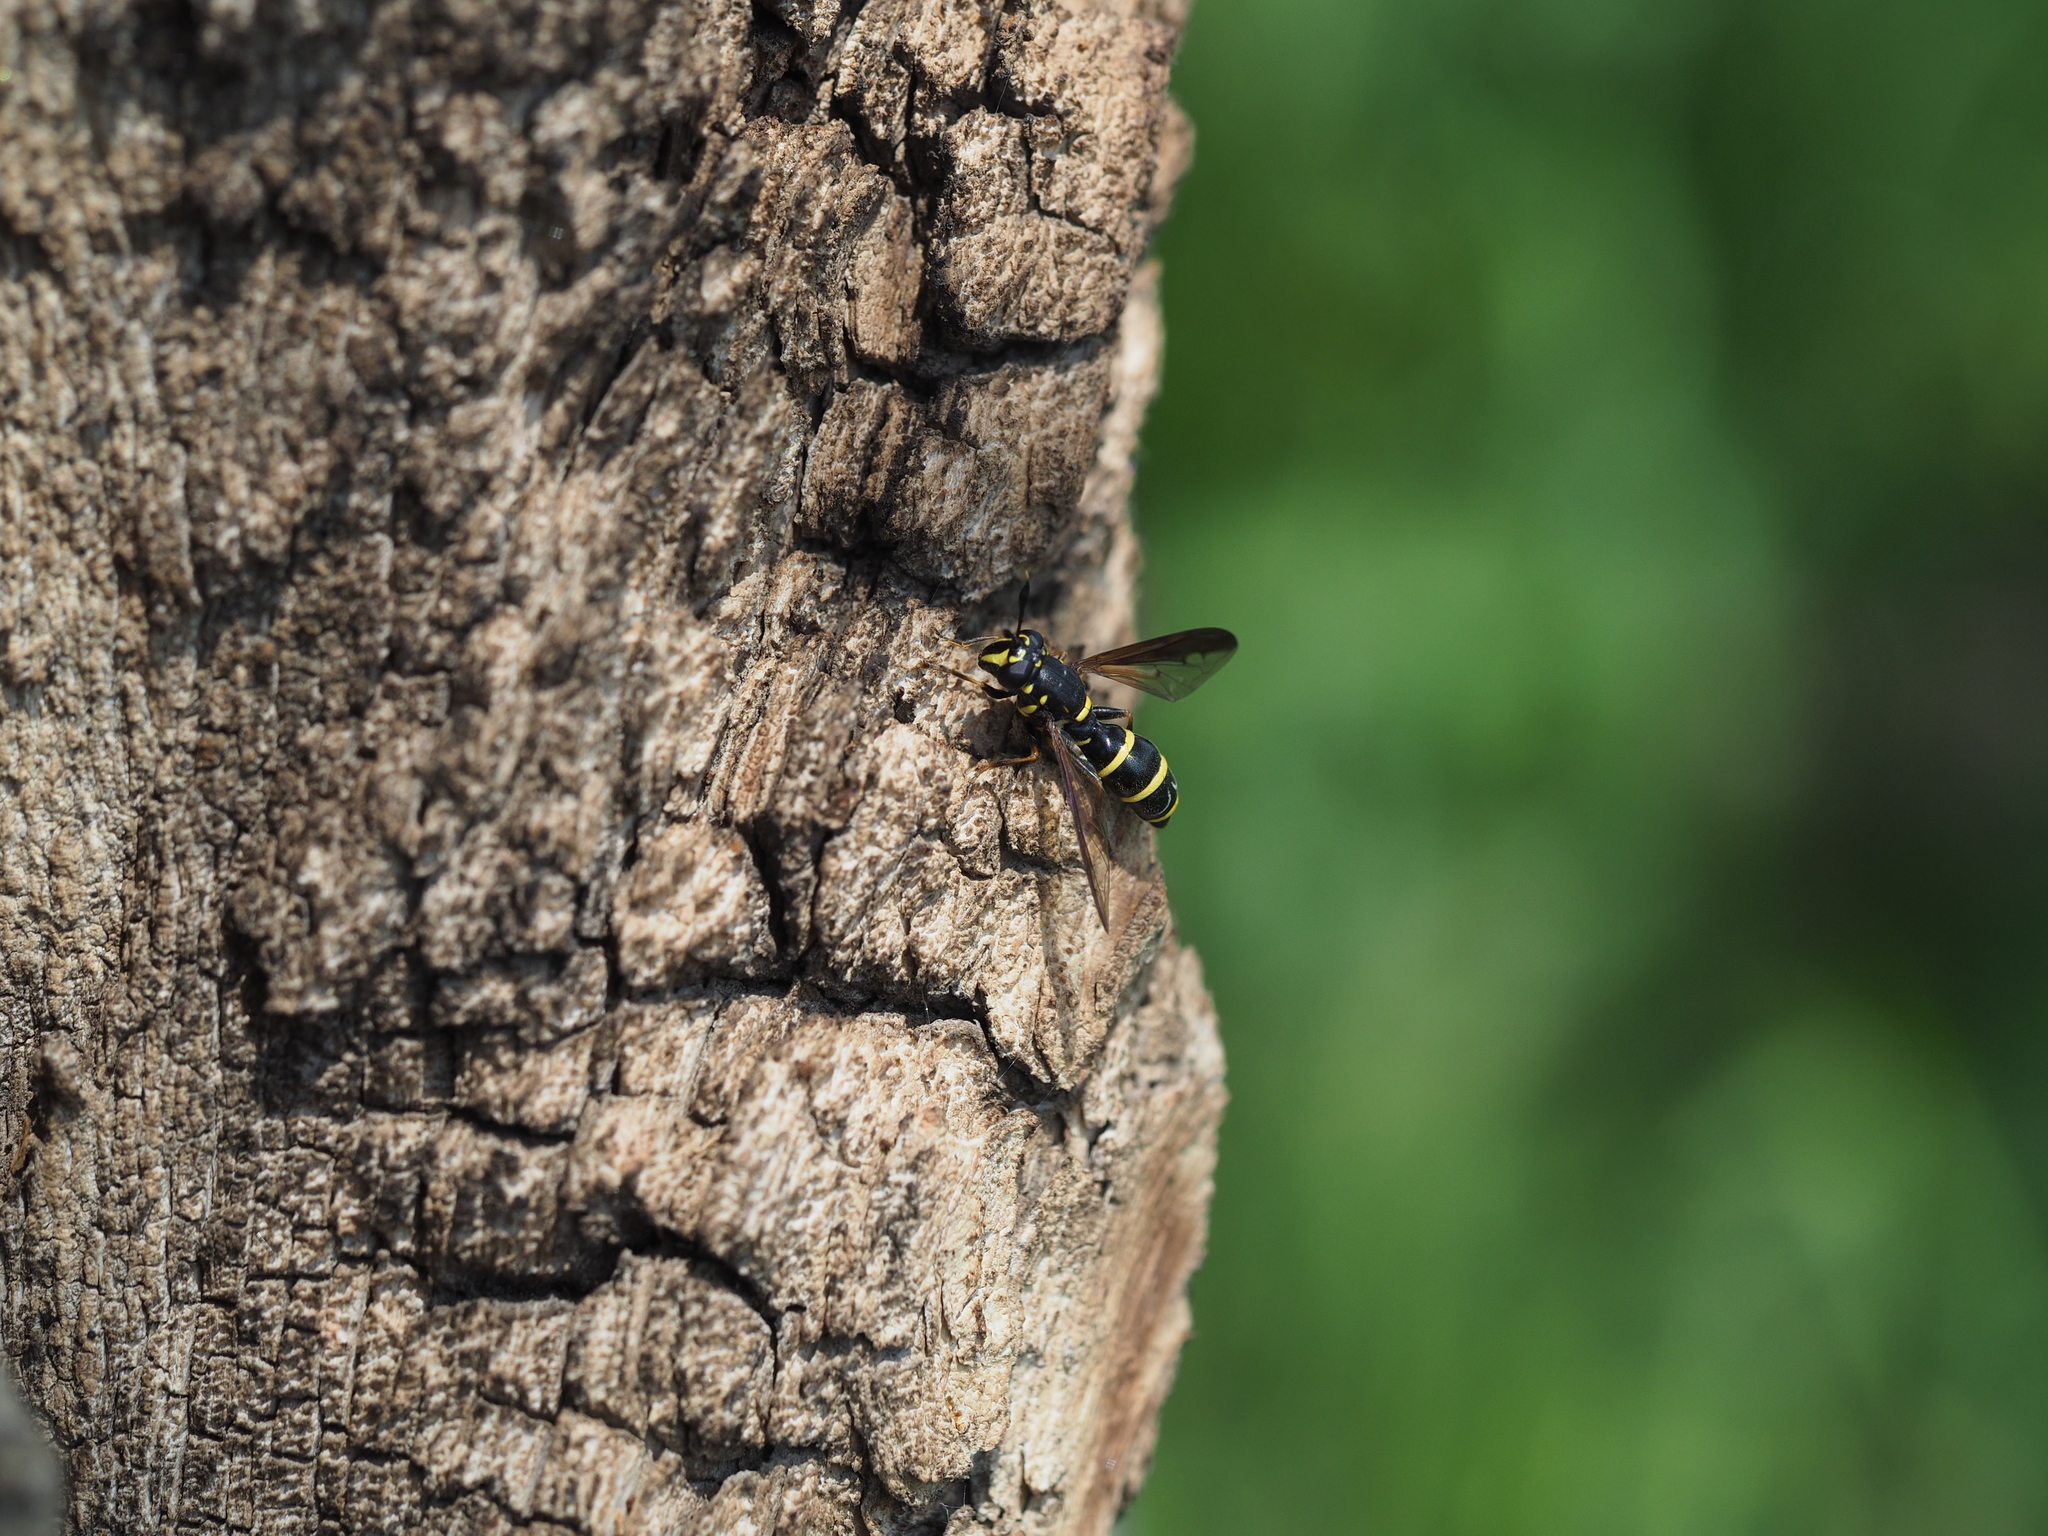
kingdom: Animalia
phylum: Arthropoda
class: Insecta
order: Diptera
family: Syrphidae
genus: Sphiximorpha
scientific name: Sphiximorpha subsessilis
